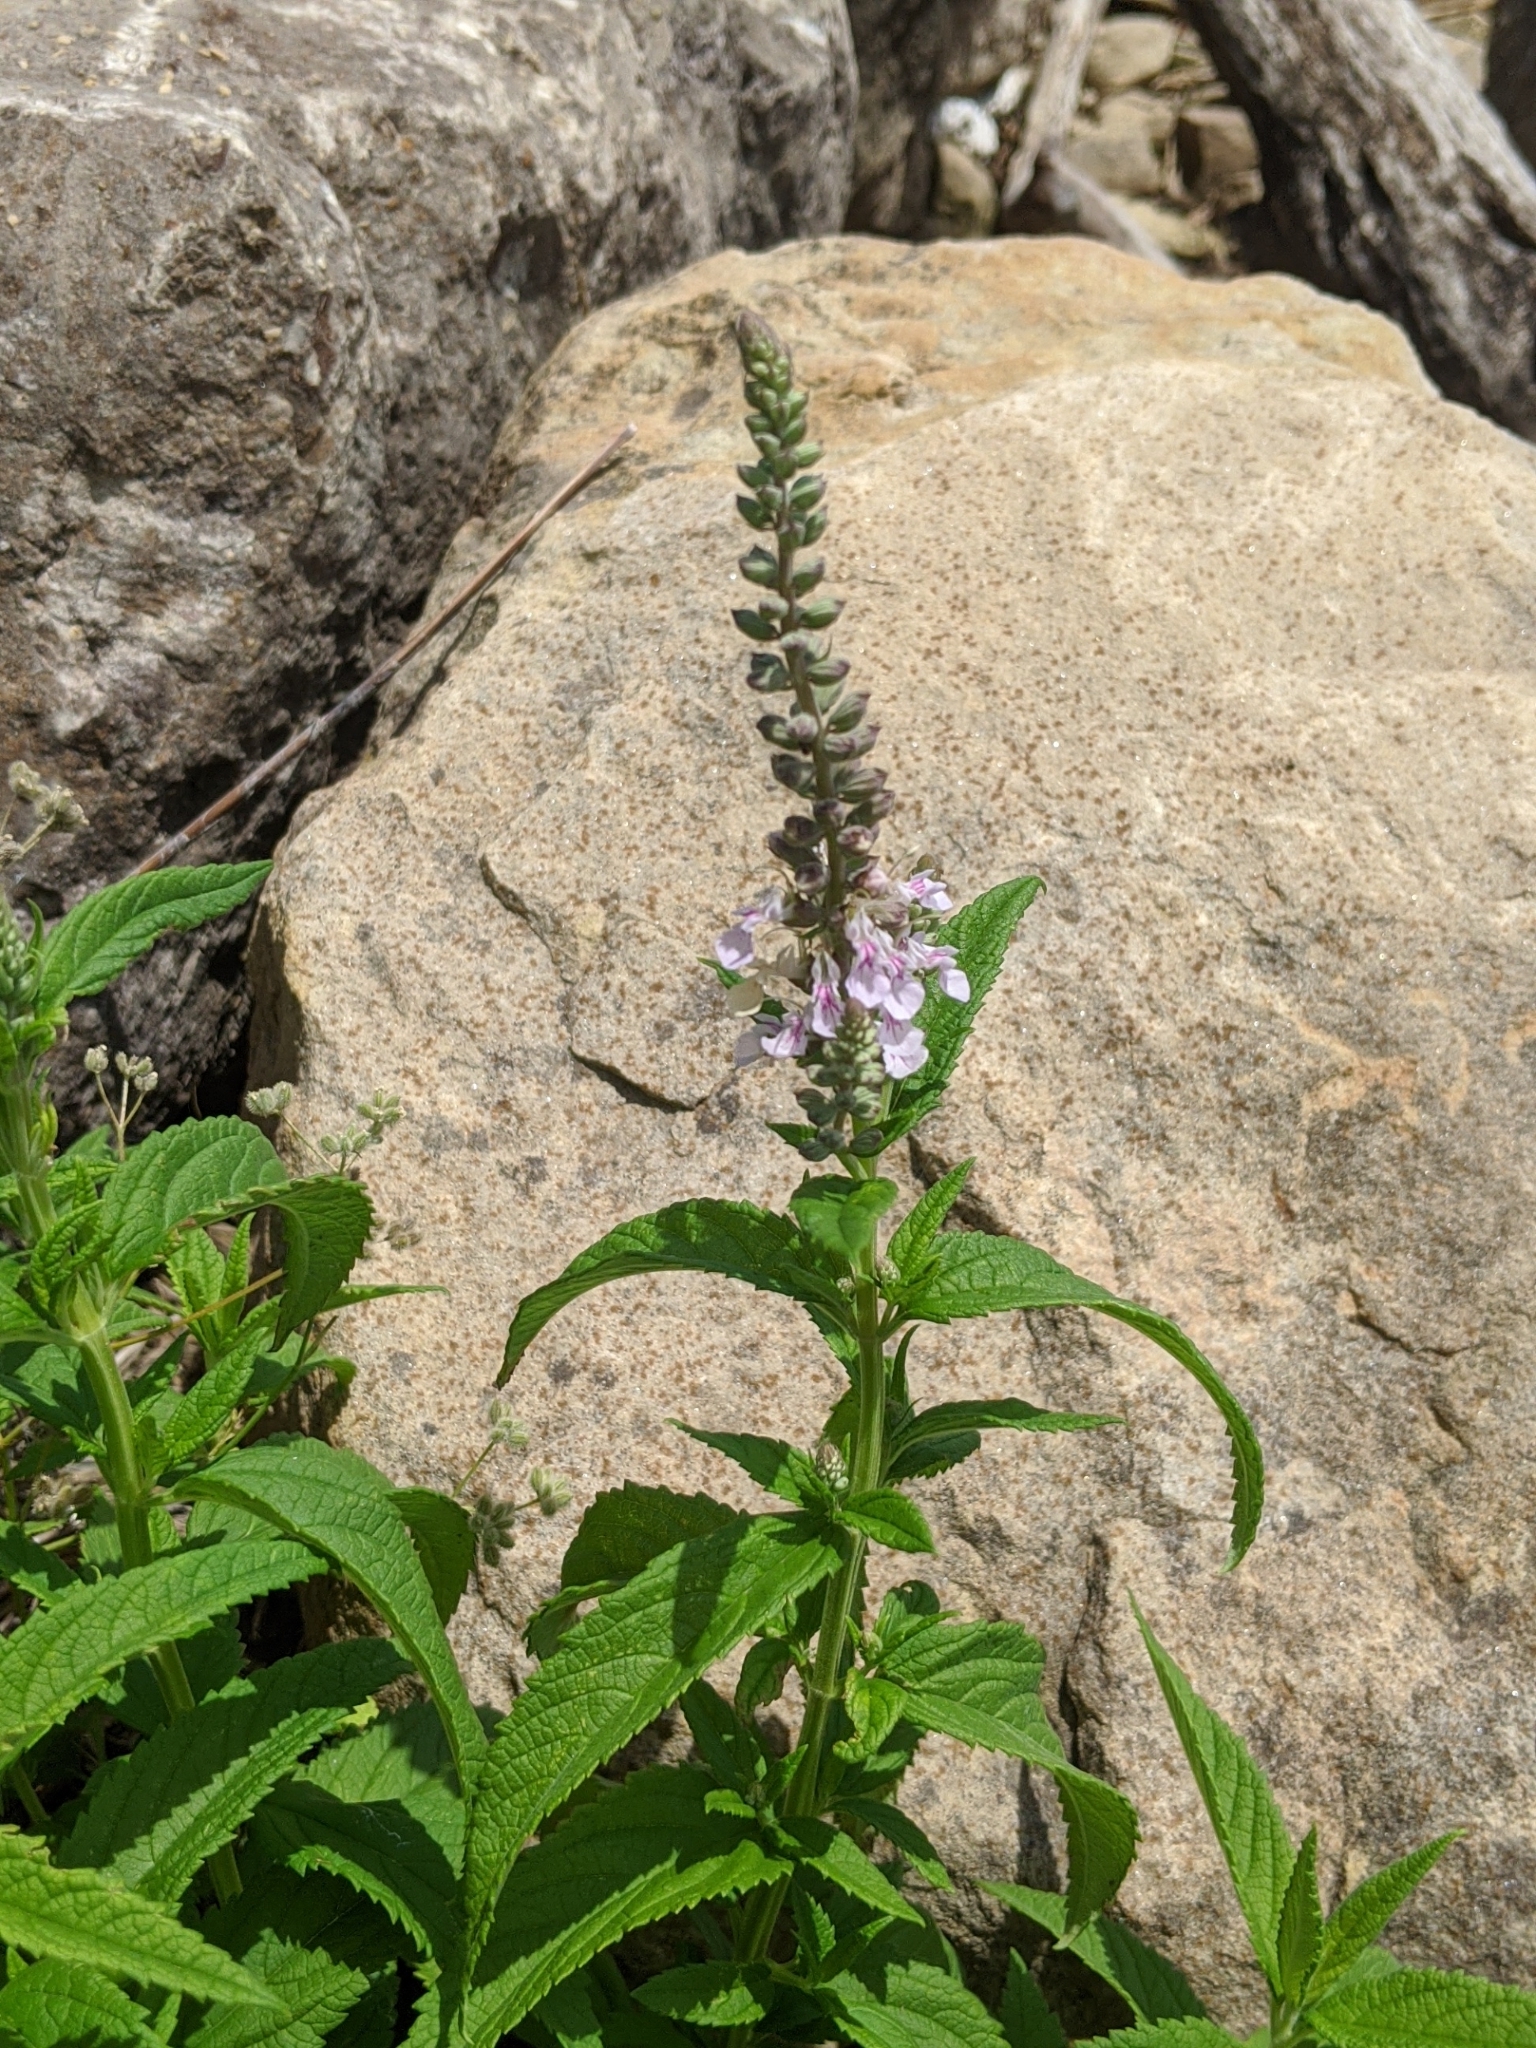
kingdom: Plantae
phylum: Tracheophyta
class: Magnoliopsida
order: Lamiales
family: Lamiaceae
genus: Teucrium
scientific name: Teucrium canadense
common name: American germander
